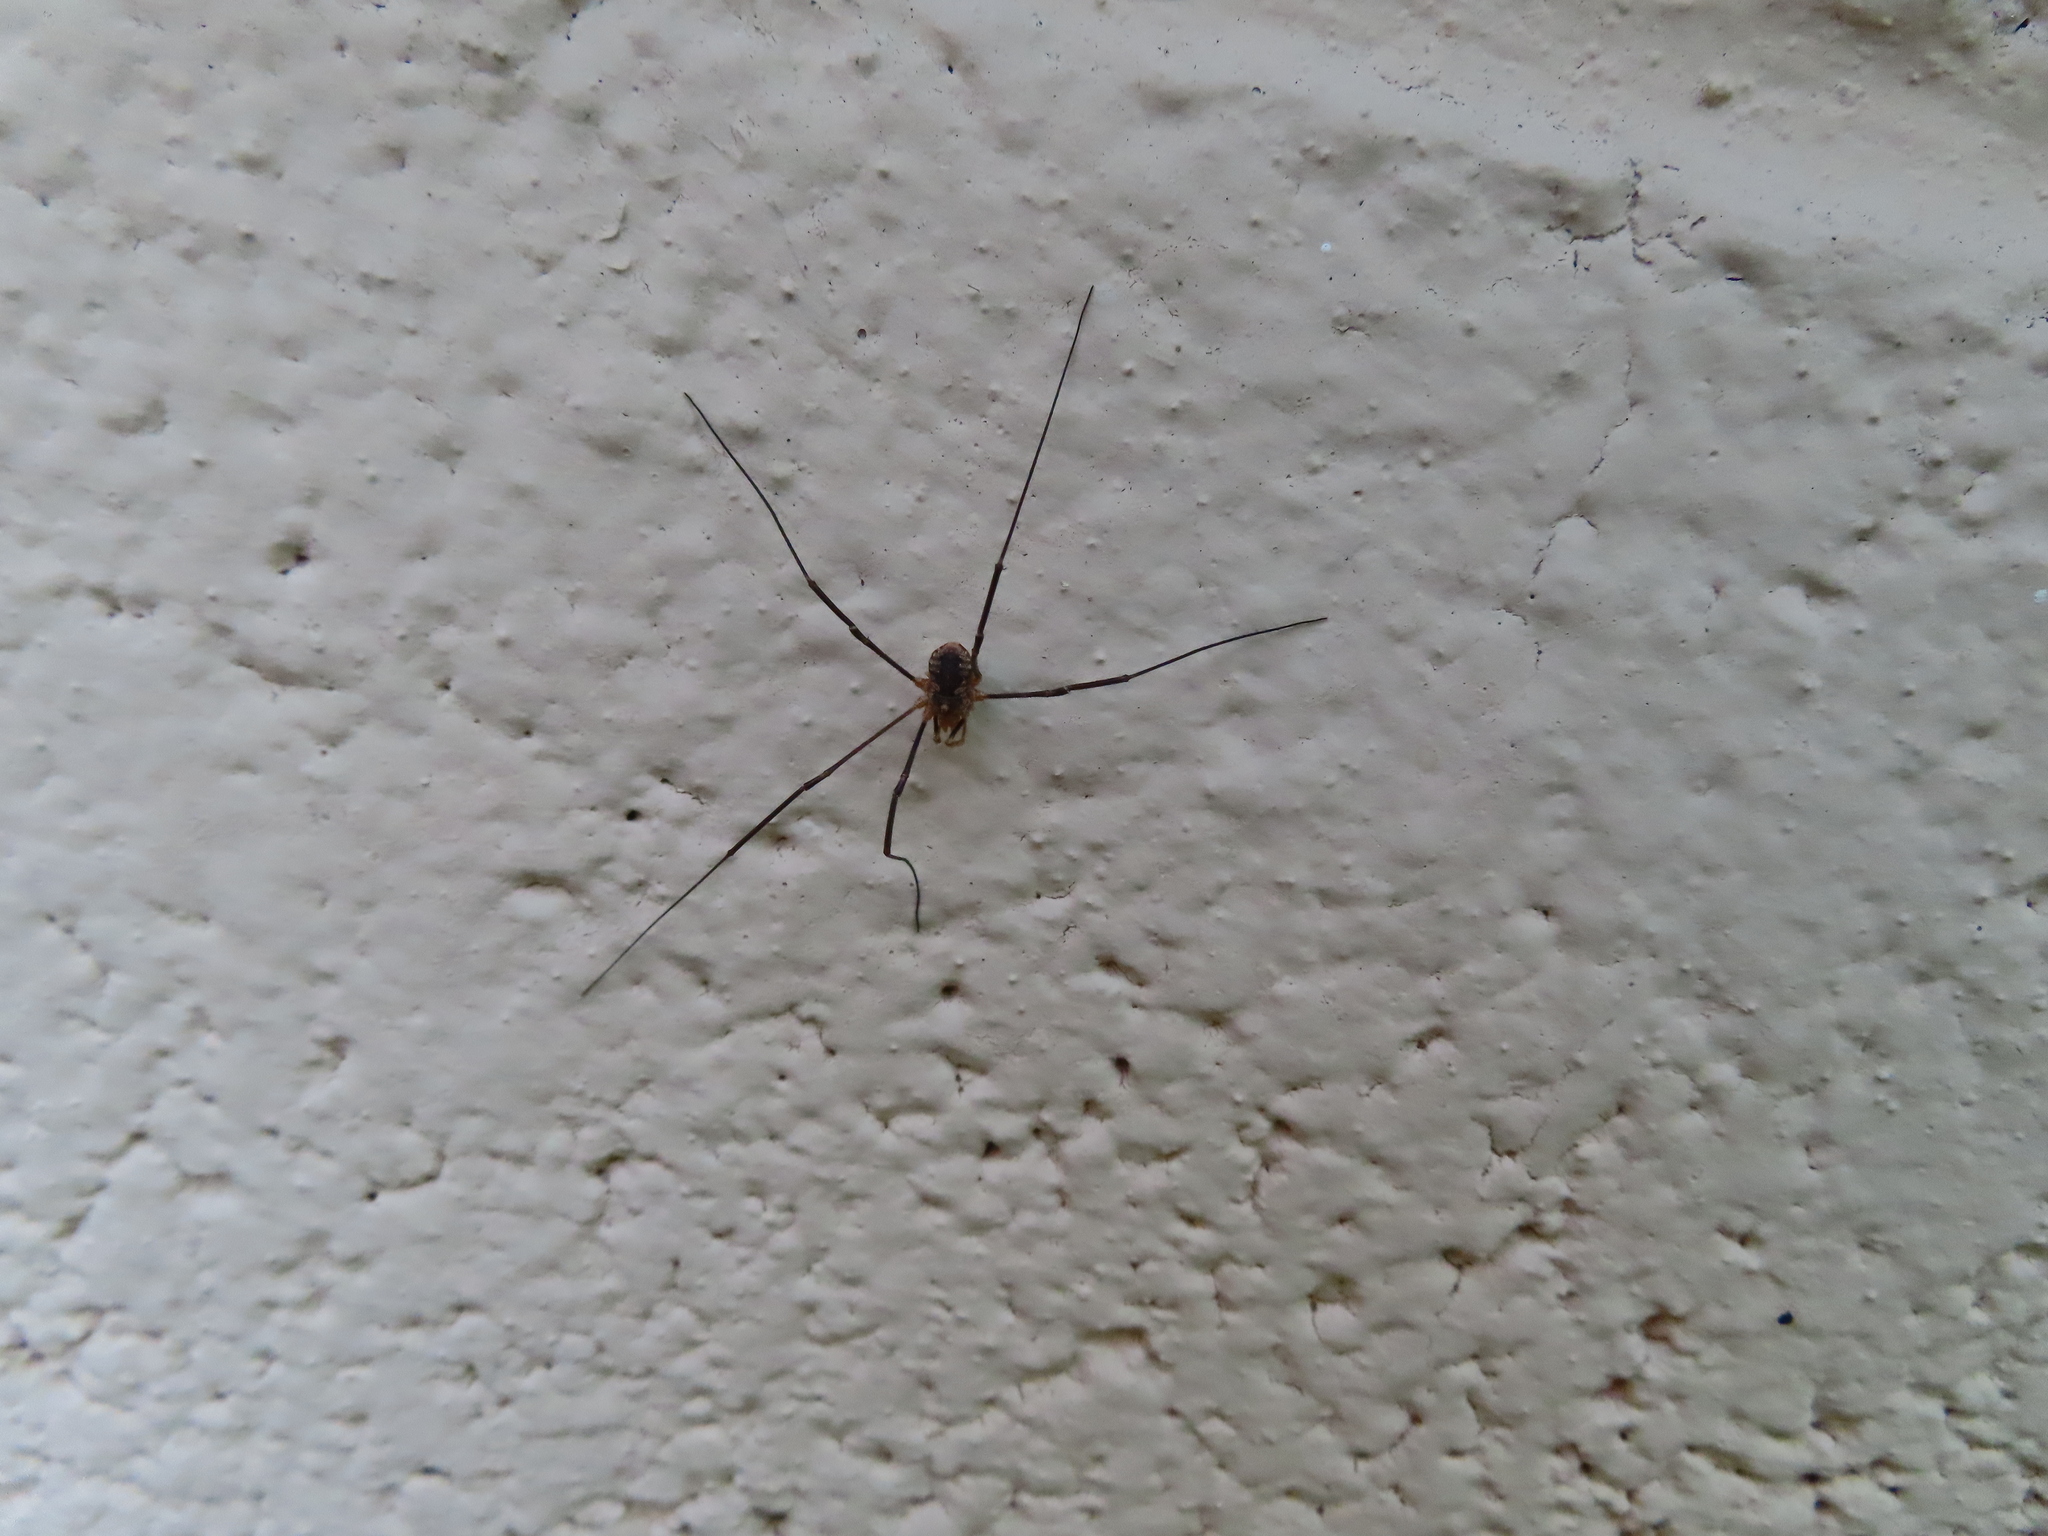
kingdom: Animalia
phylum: Arthropoda
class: Arachnida
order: Opiliones
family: Phalangiidae
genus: Phalangium
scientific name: Phalangium opilio
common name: Daddy longleg
